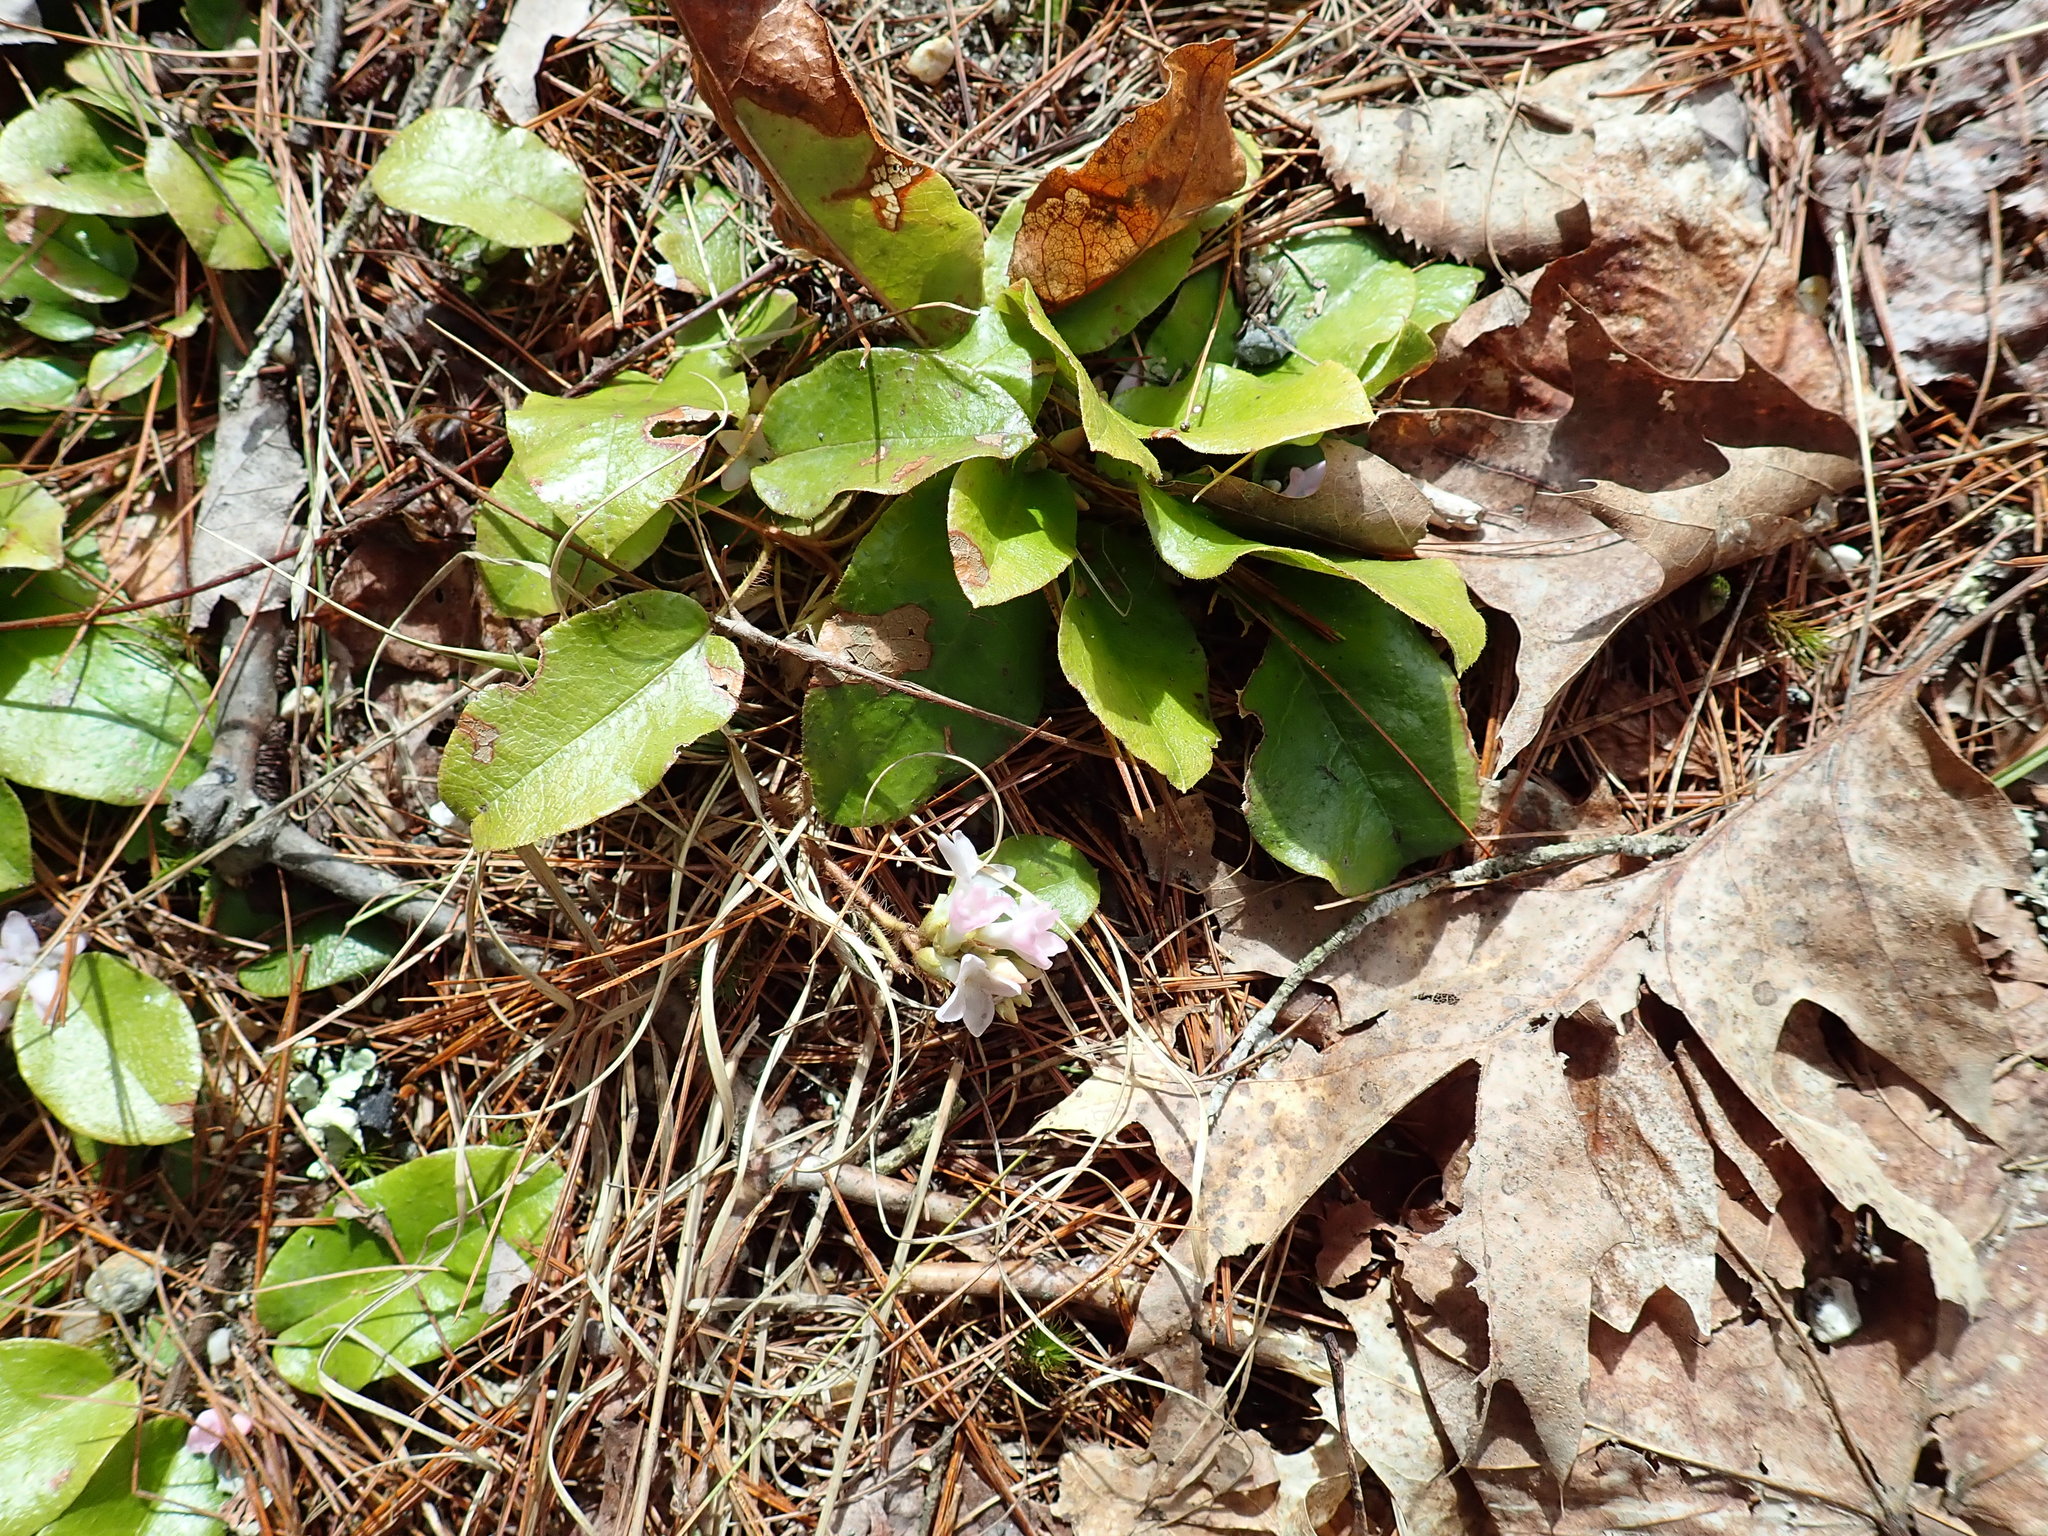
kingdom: Plantae
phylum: Tracheophyta
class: Magnoliopsida
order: Ericales
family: Ericaceae
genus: Epigaea
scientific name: Epigaea repens
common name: Gravelroot
